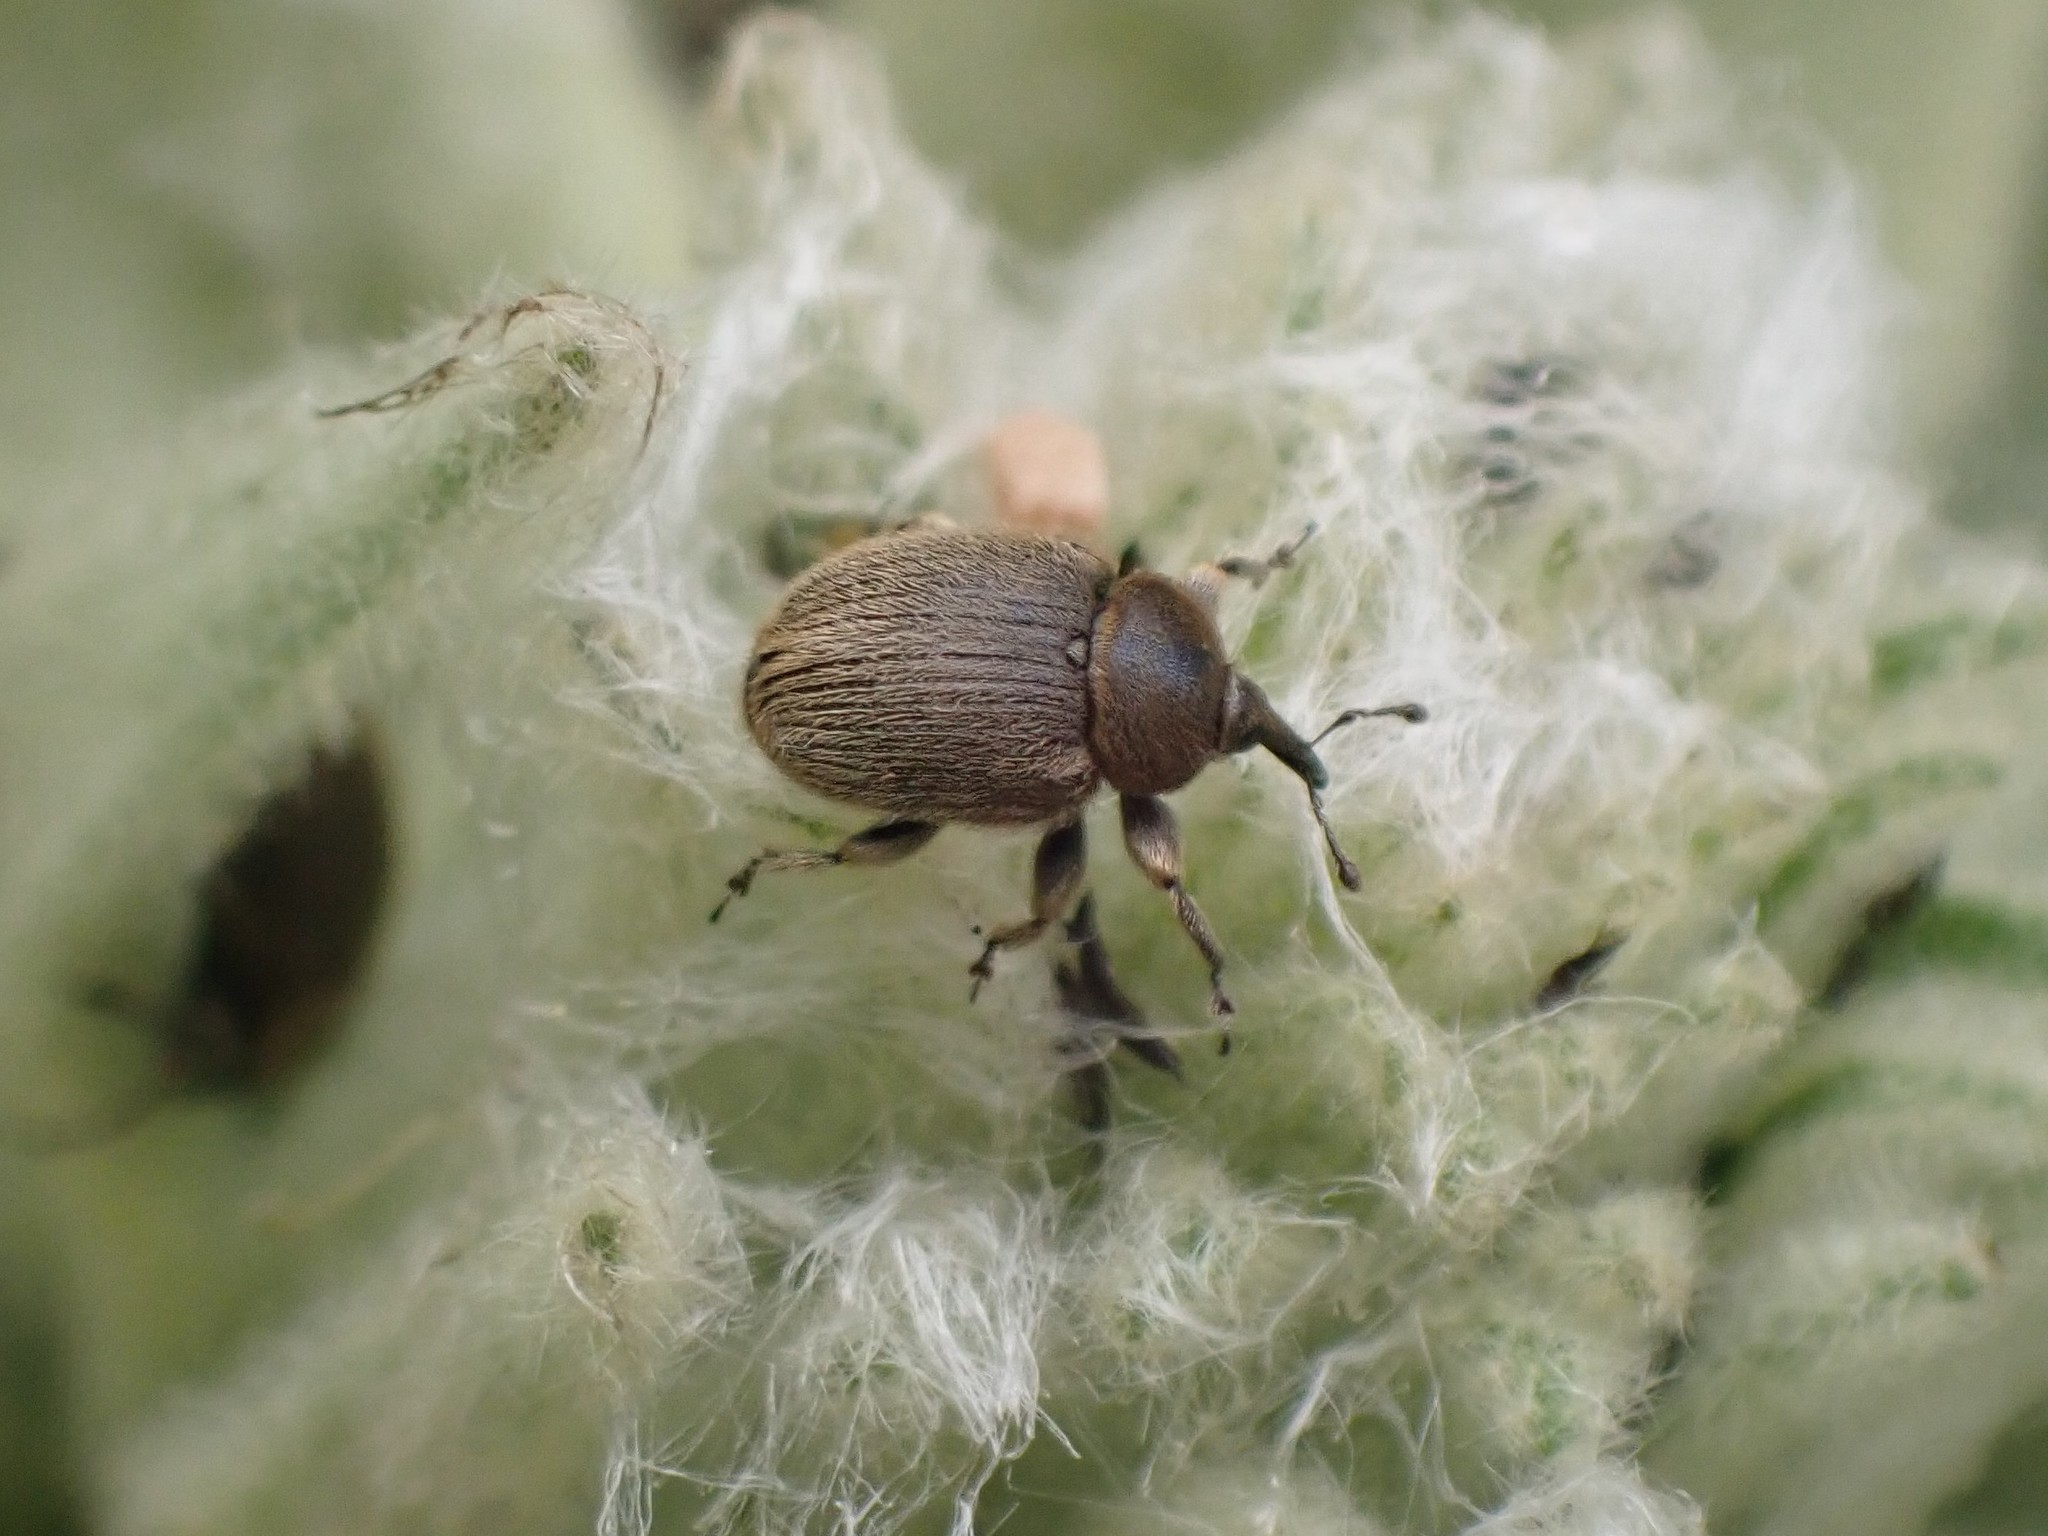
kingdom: Animalia
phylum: Arthropoda
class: Insecta
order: Coleoptera
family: Curculionidae
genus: Rhinusa
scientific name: Rhinusa tetra
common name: Weevil
